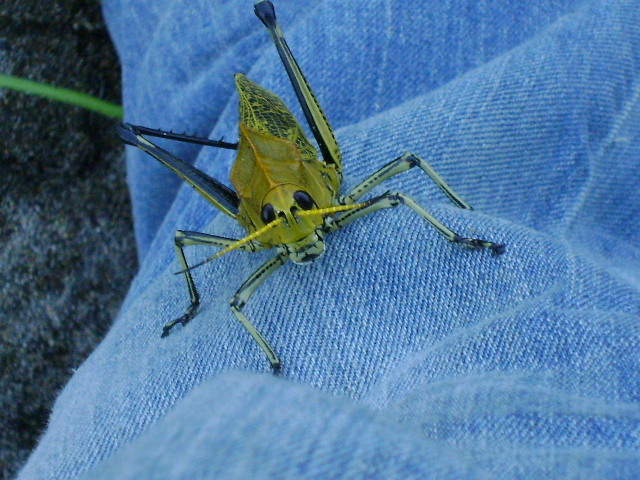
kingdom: Animalia
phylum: Arthropoda
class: Insecta
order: Orthoptera
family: Romaleidae
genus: Romalea
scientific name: Romalea
